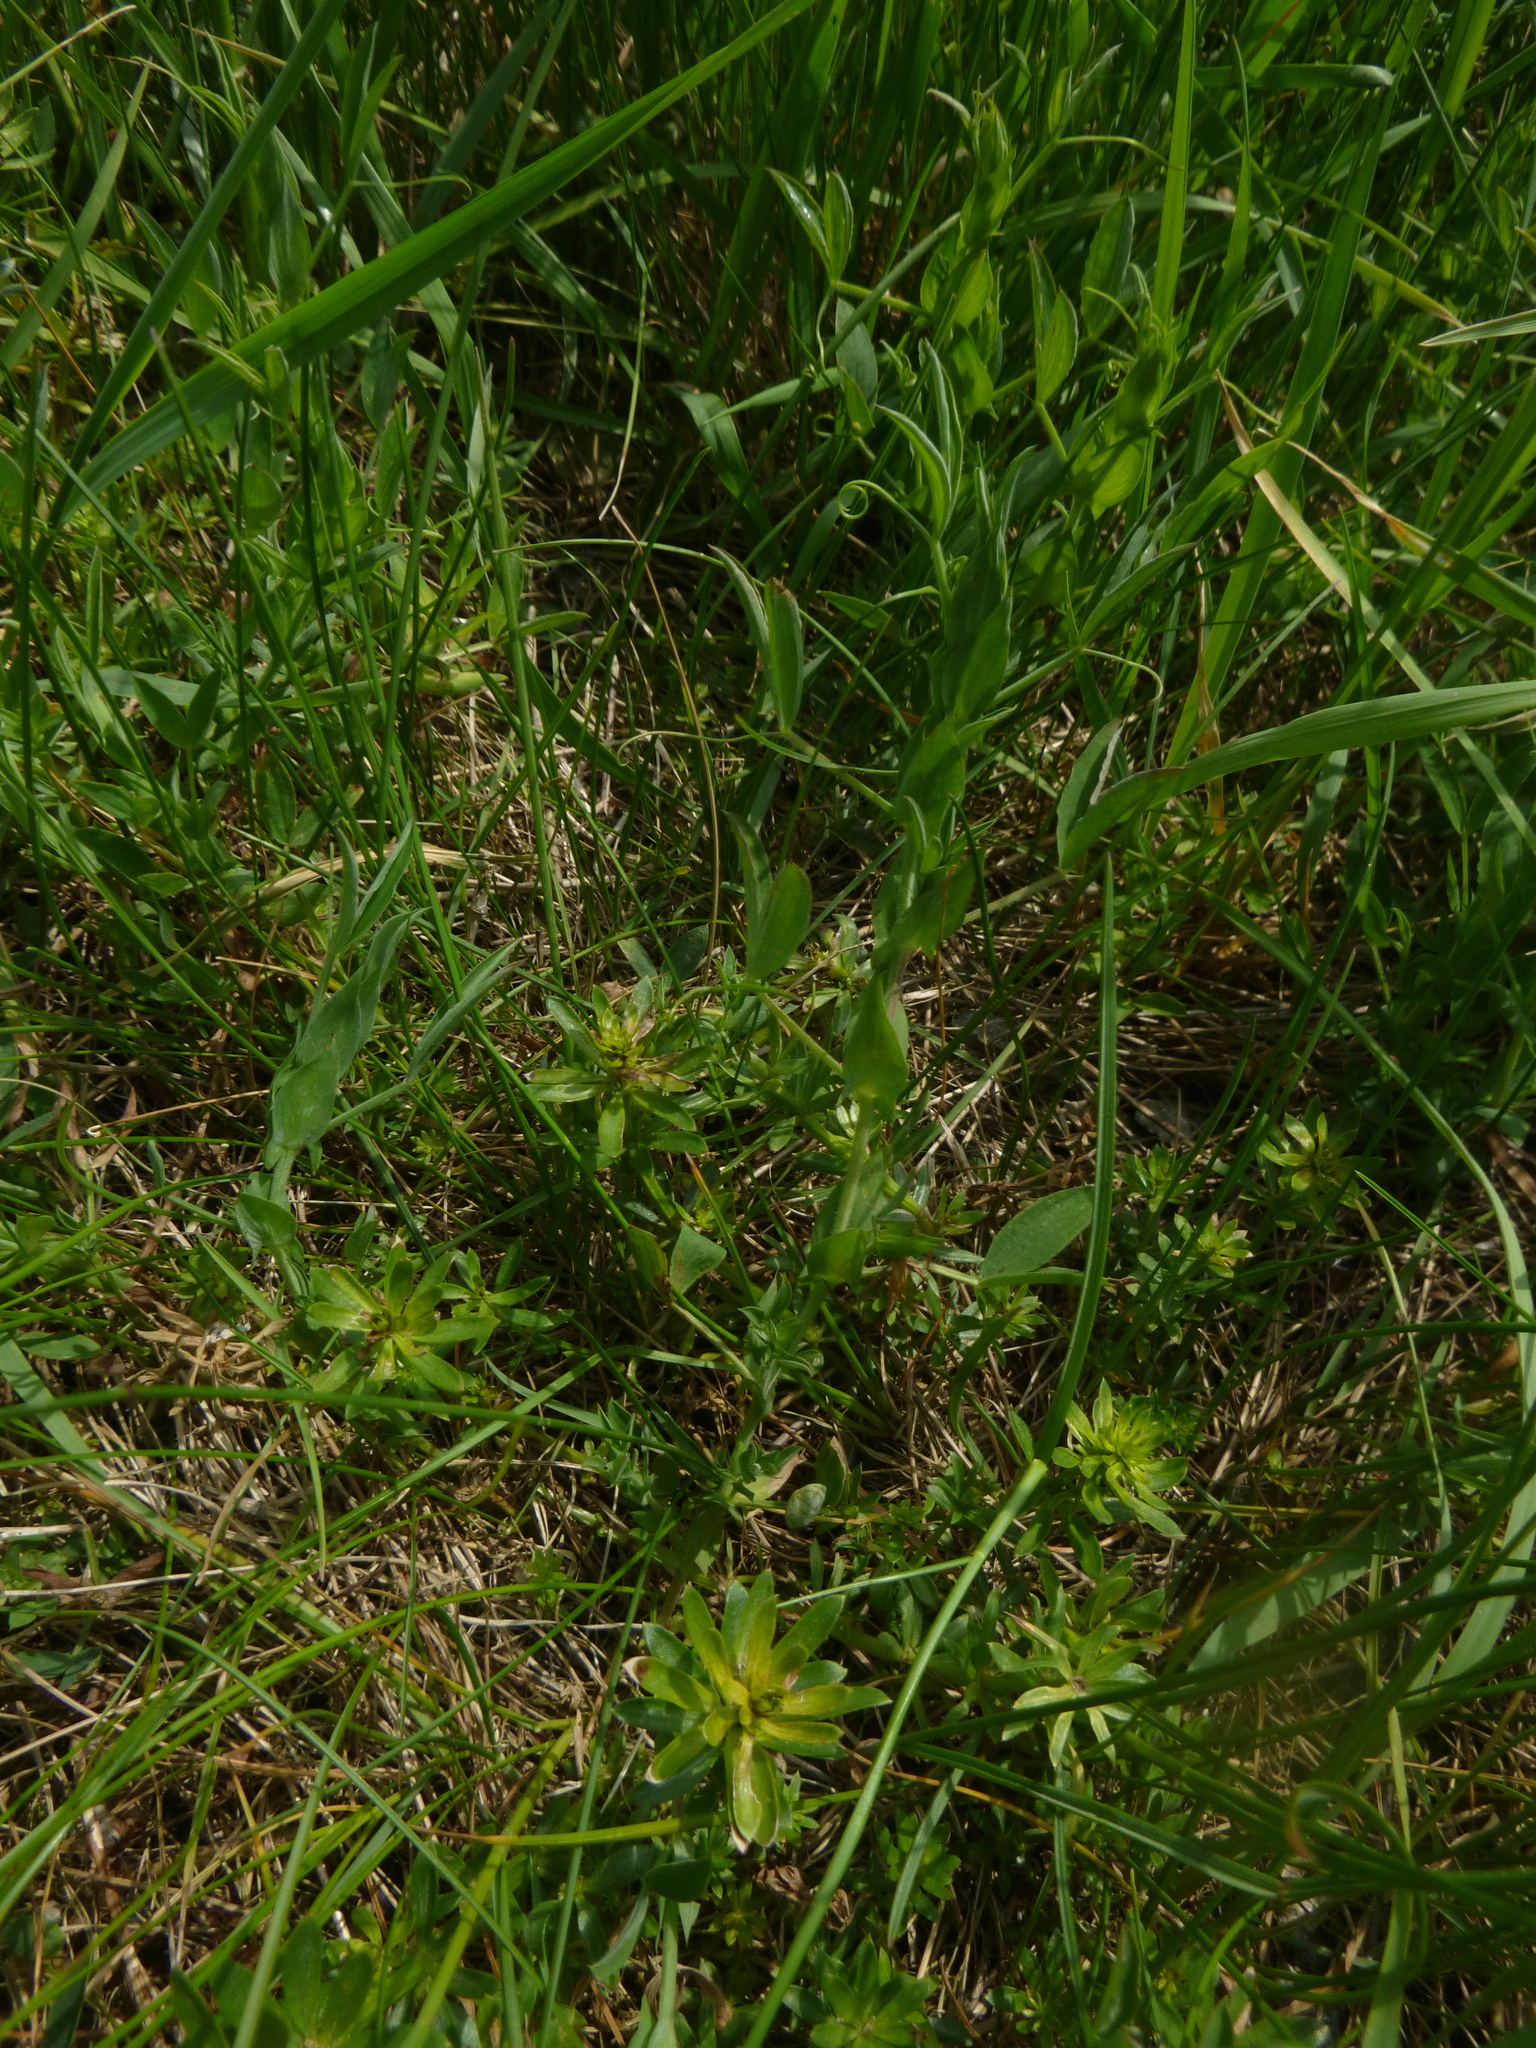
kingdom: Plantae
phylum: Tracheophyta
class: Magnoliopsida
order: Fabales
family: Fabaceae
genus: Lathyrus
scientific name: Lathyrus pratensis
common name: Meadow vetchling
